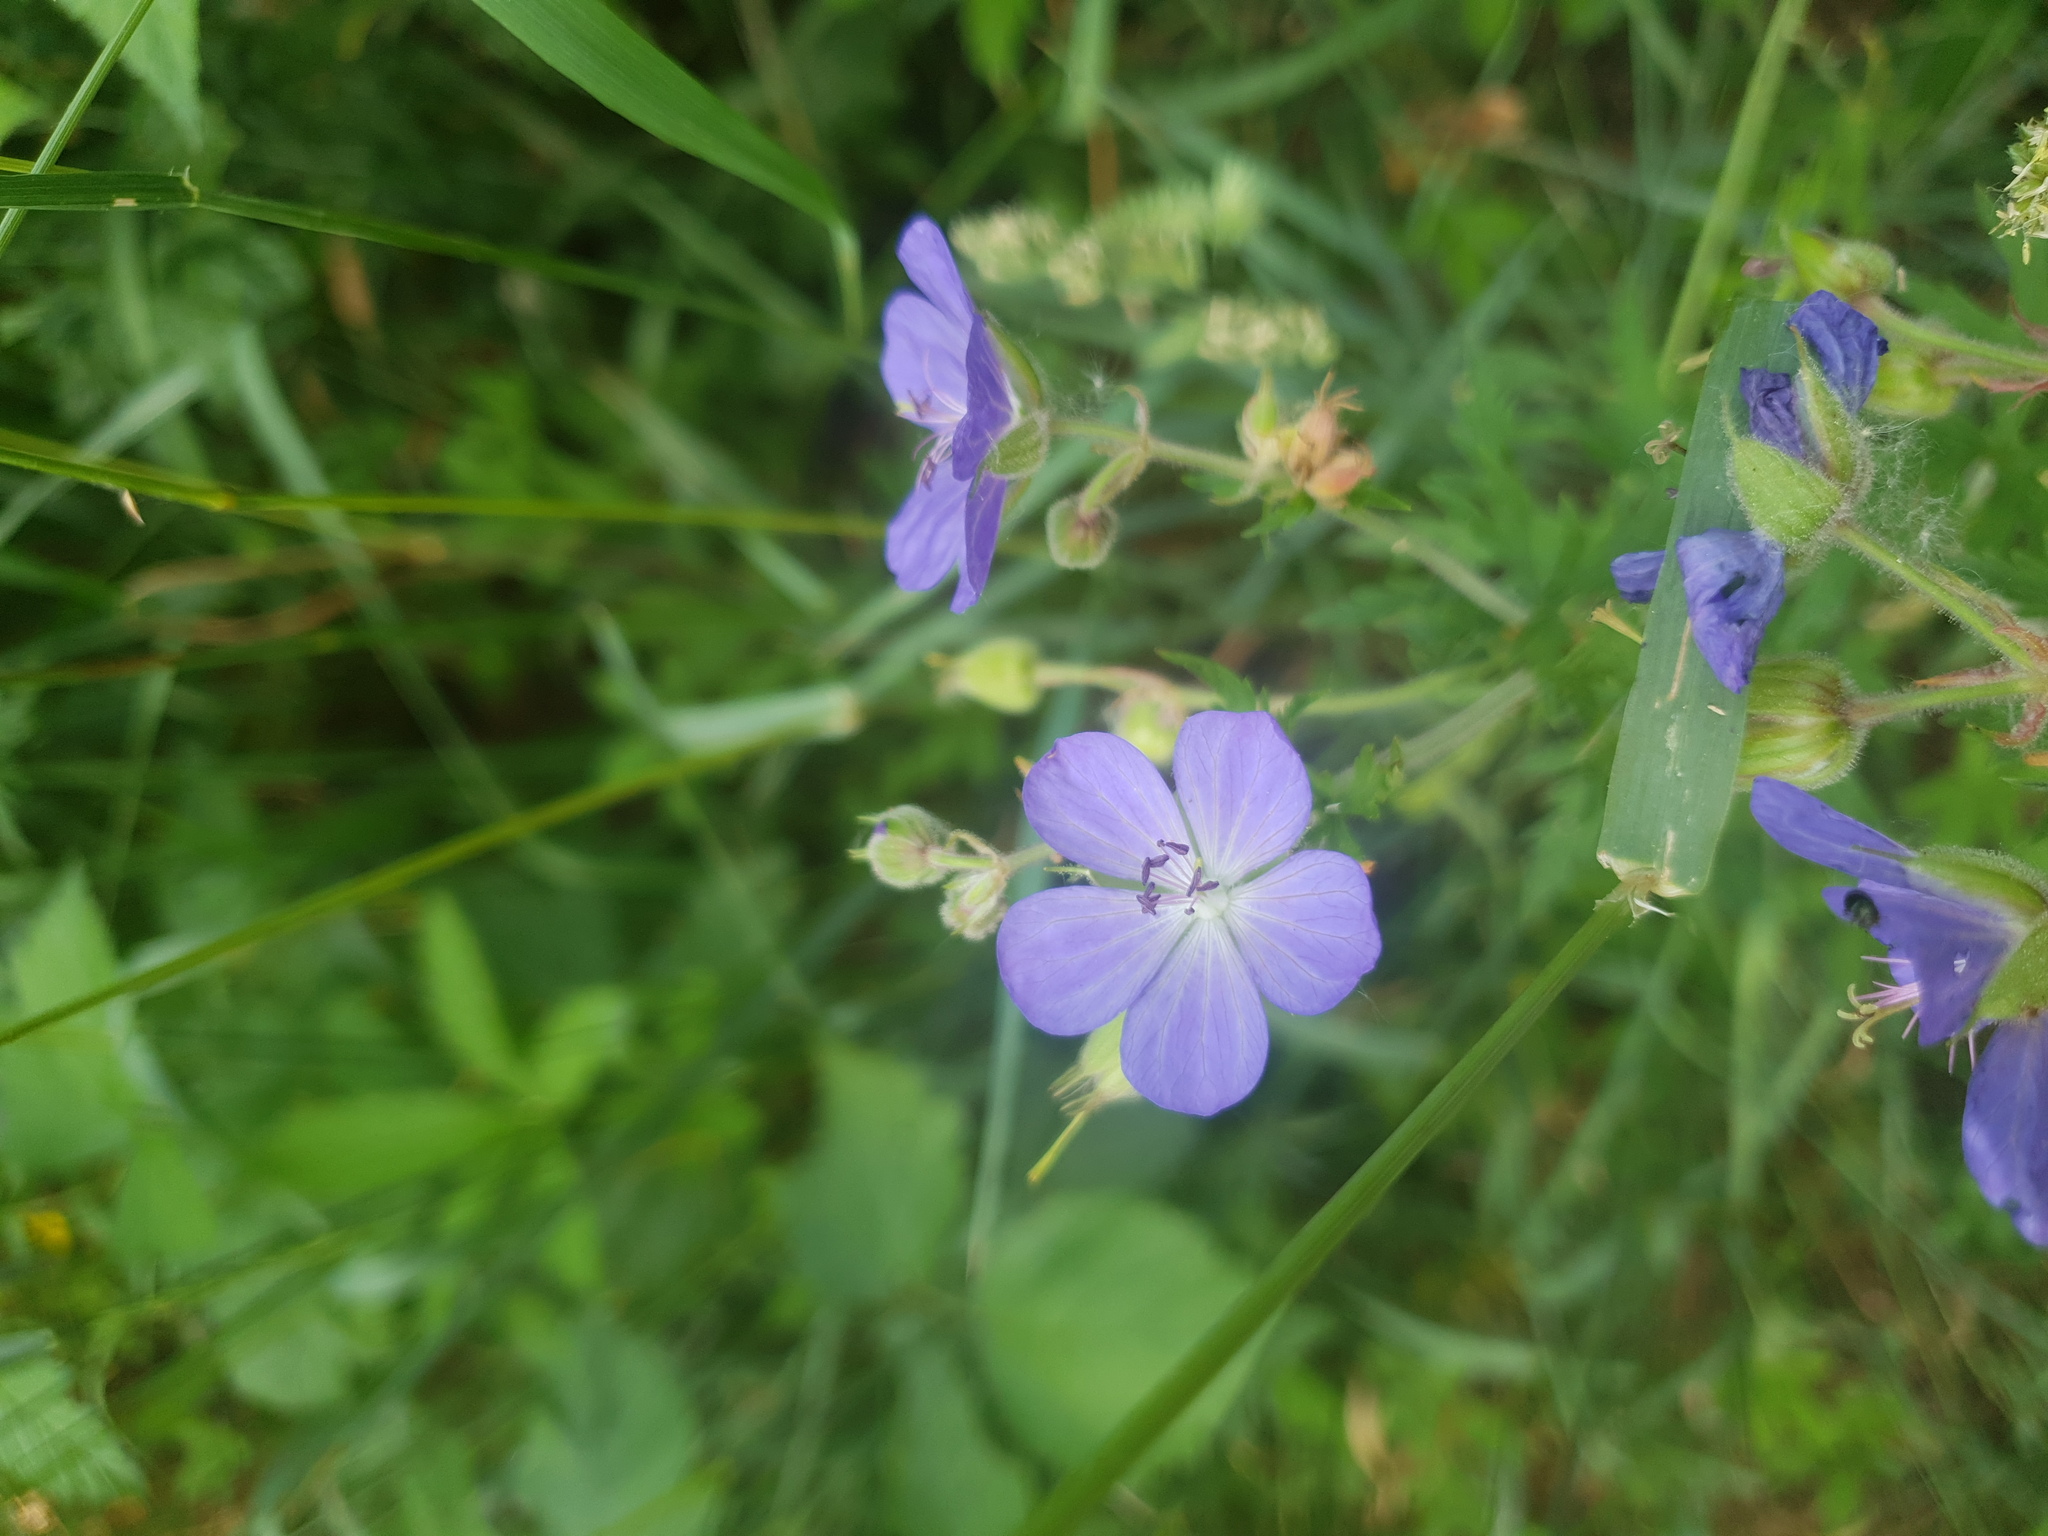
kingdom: Plantae
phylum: Tracheophyta
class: Magnoliopsida
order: Geraniales
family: Geraniaceae
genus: Geranium
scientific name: Geranium pratense
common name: Meadow crane's-bill
